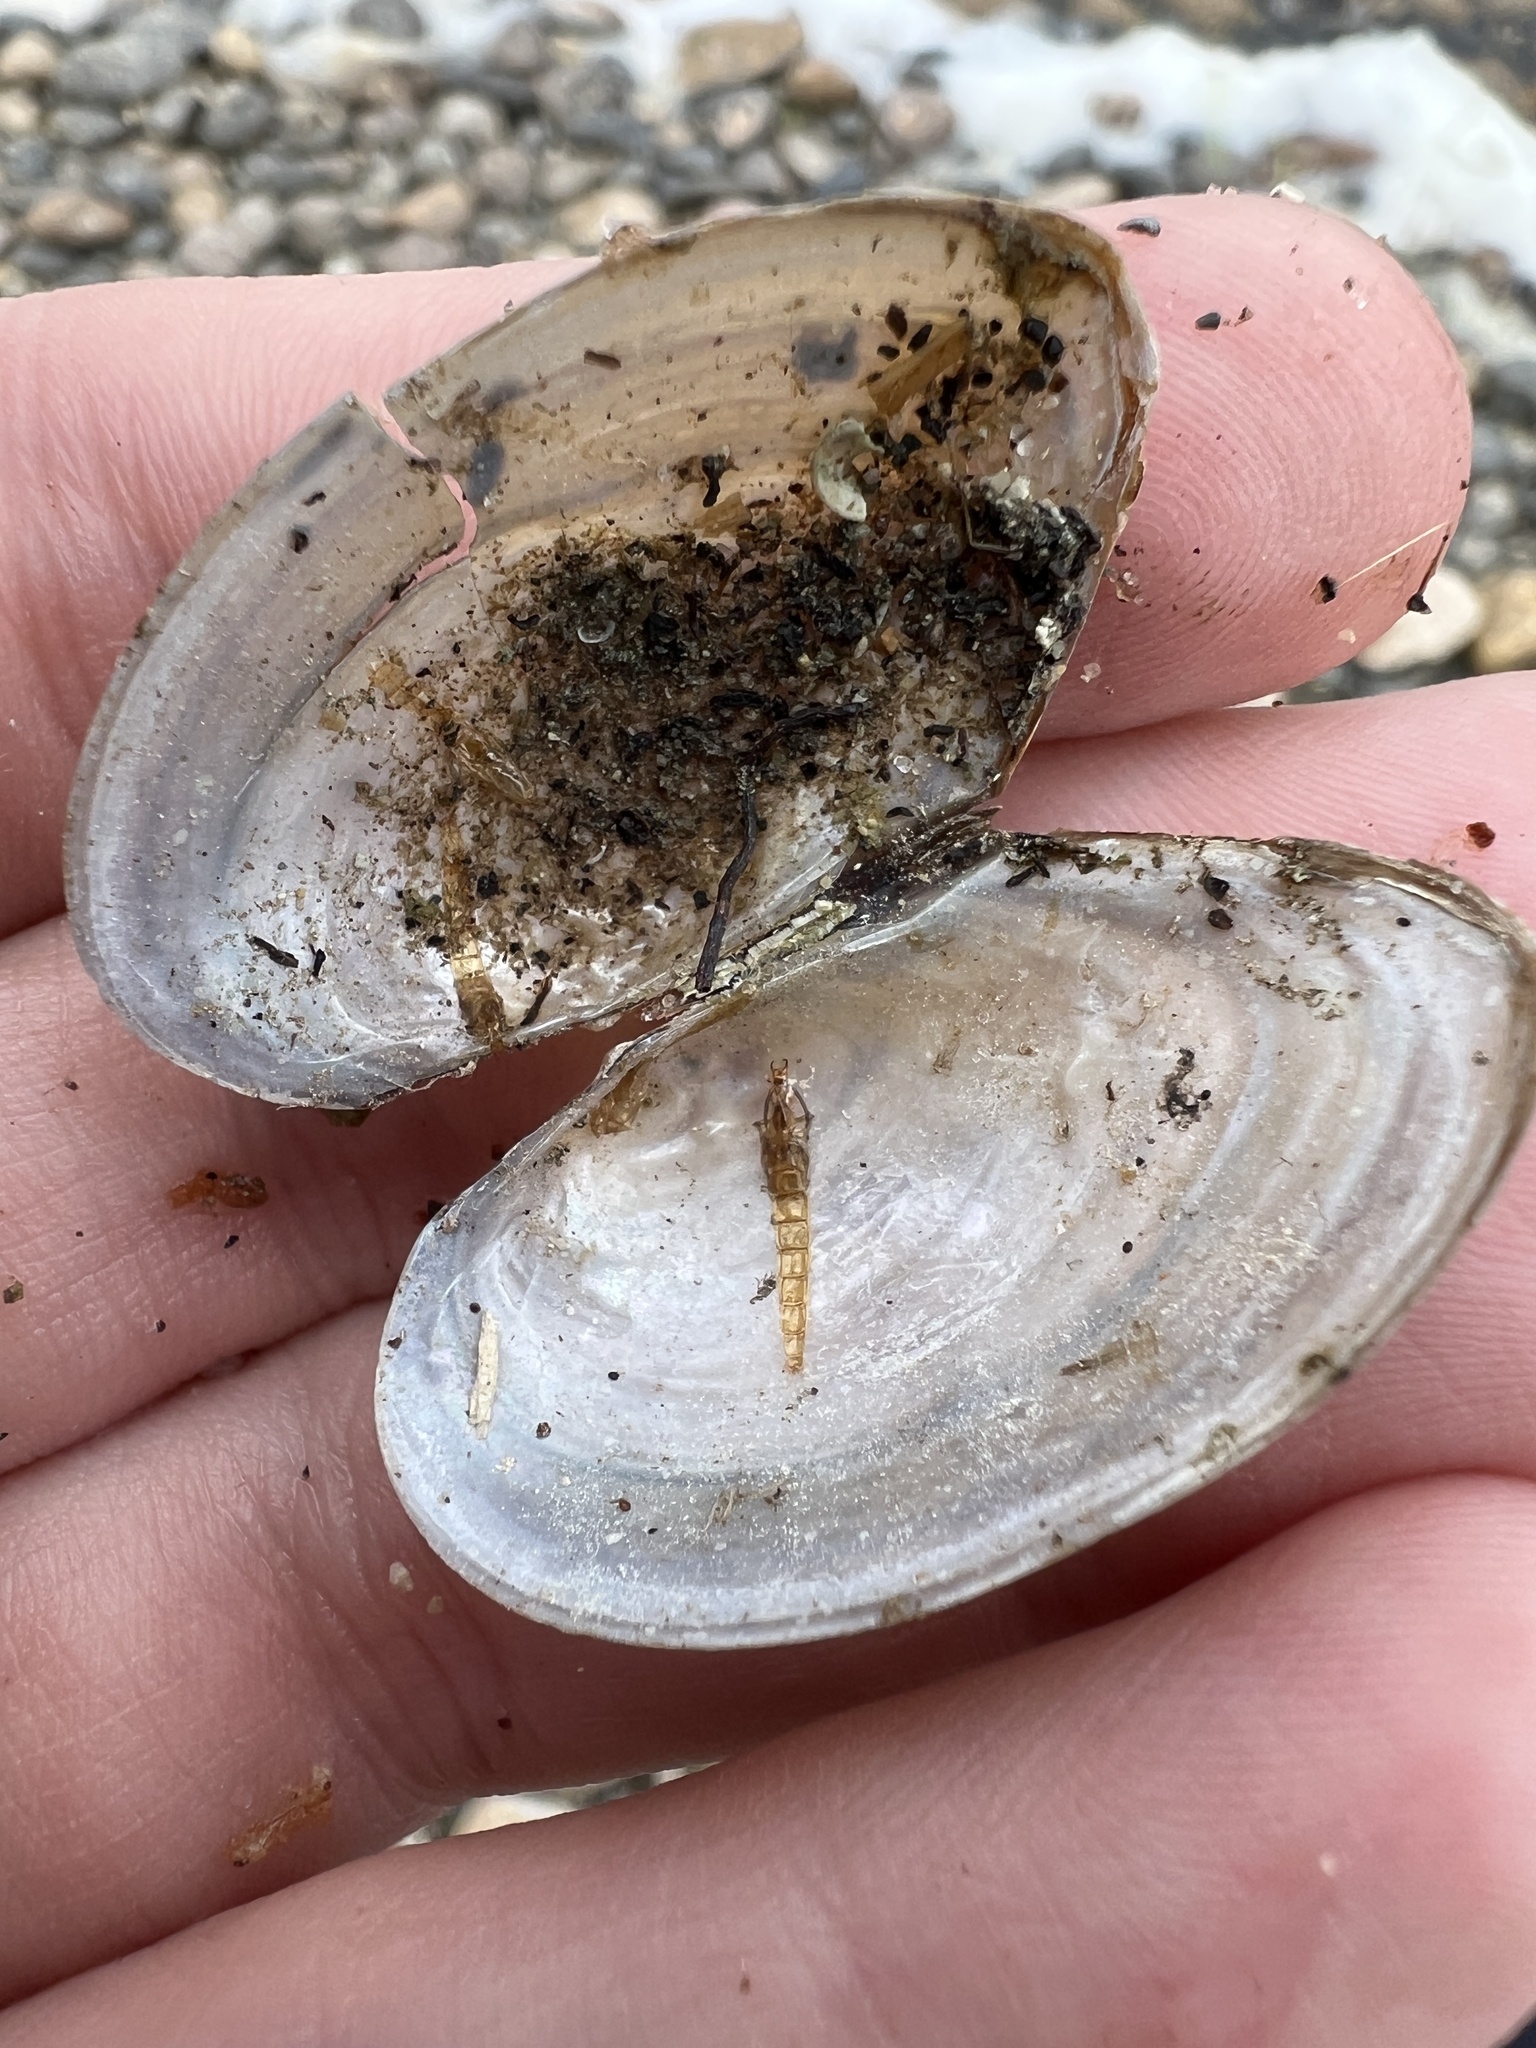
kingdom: Animalia
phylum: Mollusca
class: Bivalvia
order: Unionida
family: Unionidae
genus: Pyganodon
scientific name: Pyganodon grandis
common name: Giant floater
